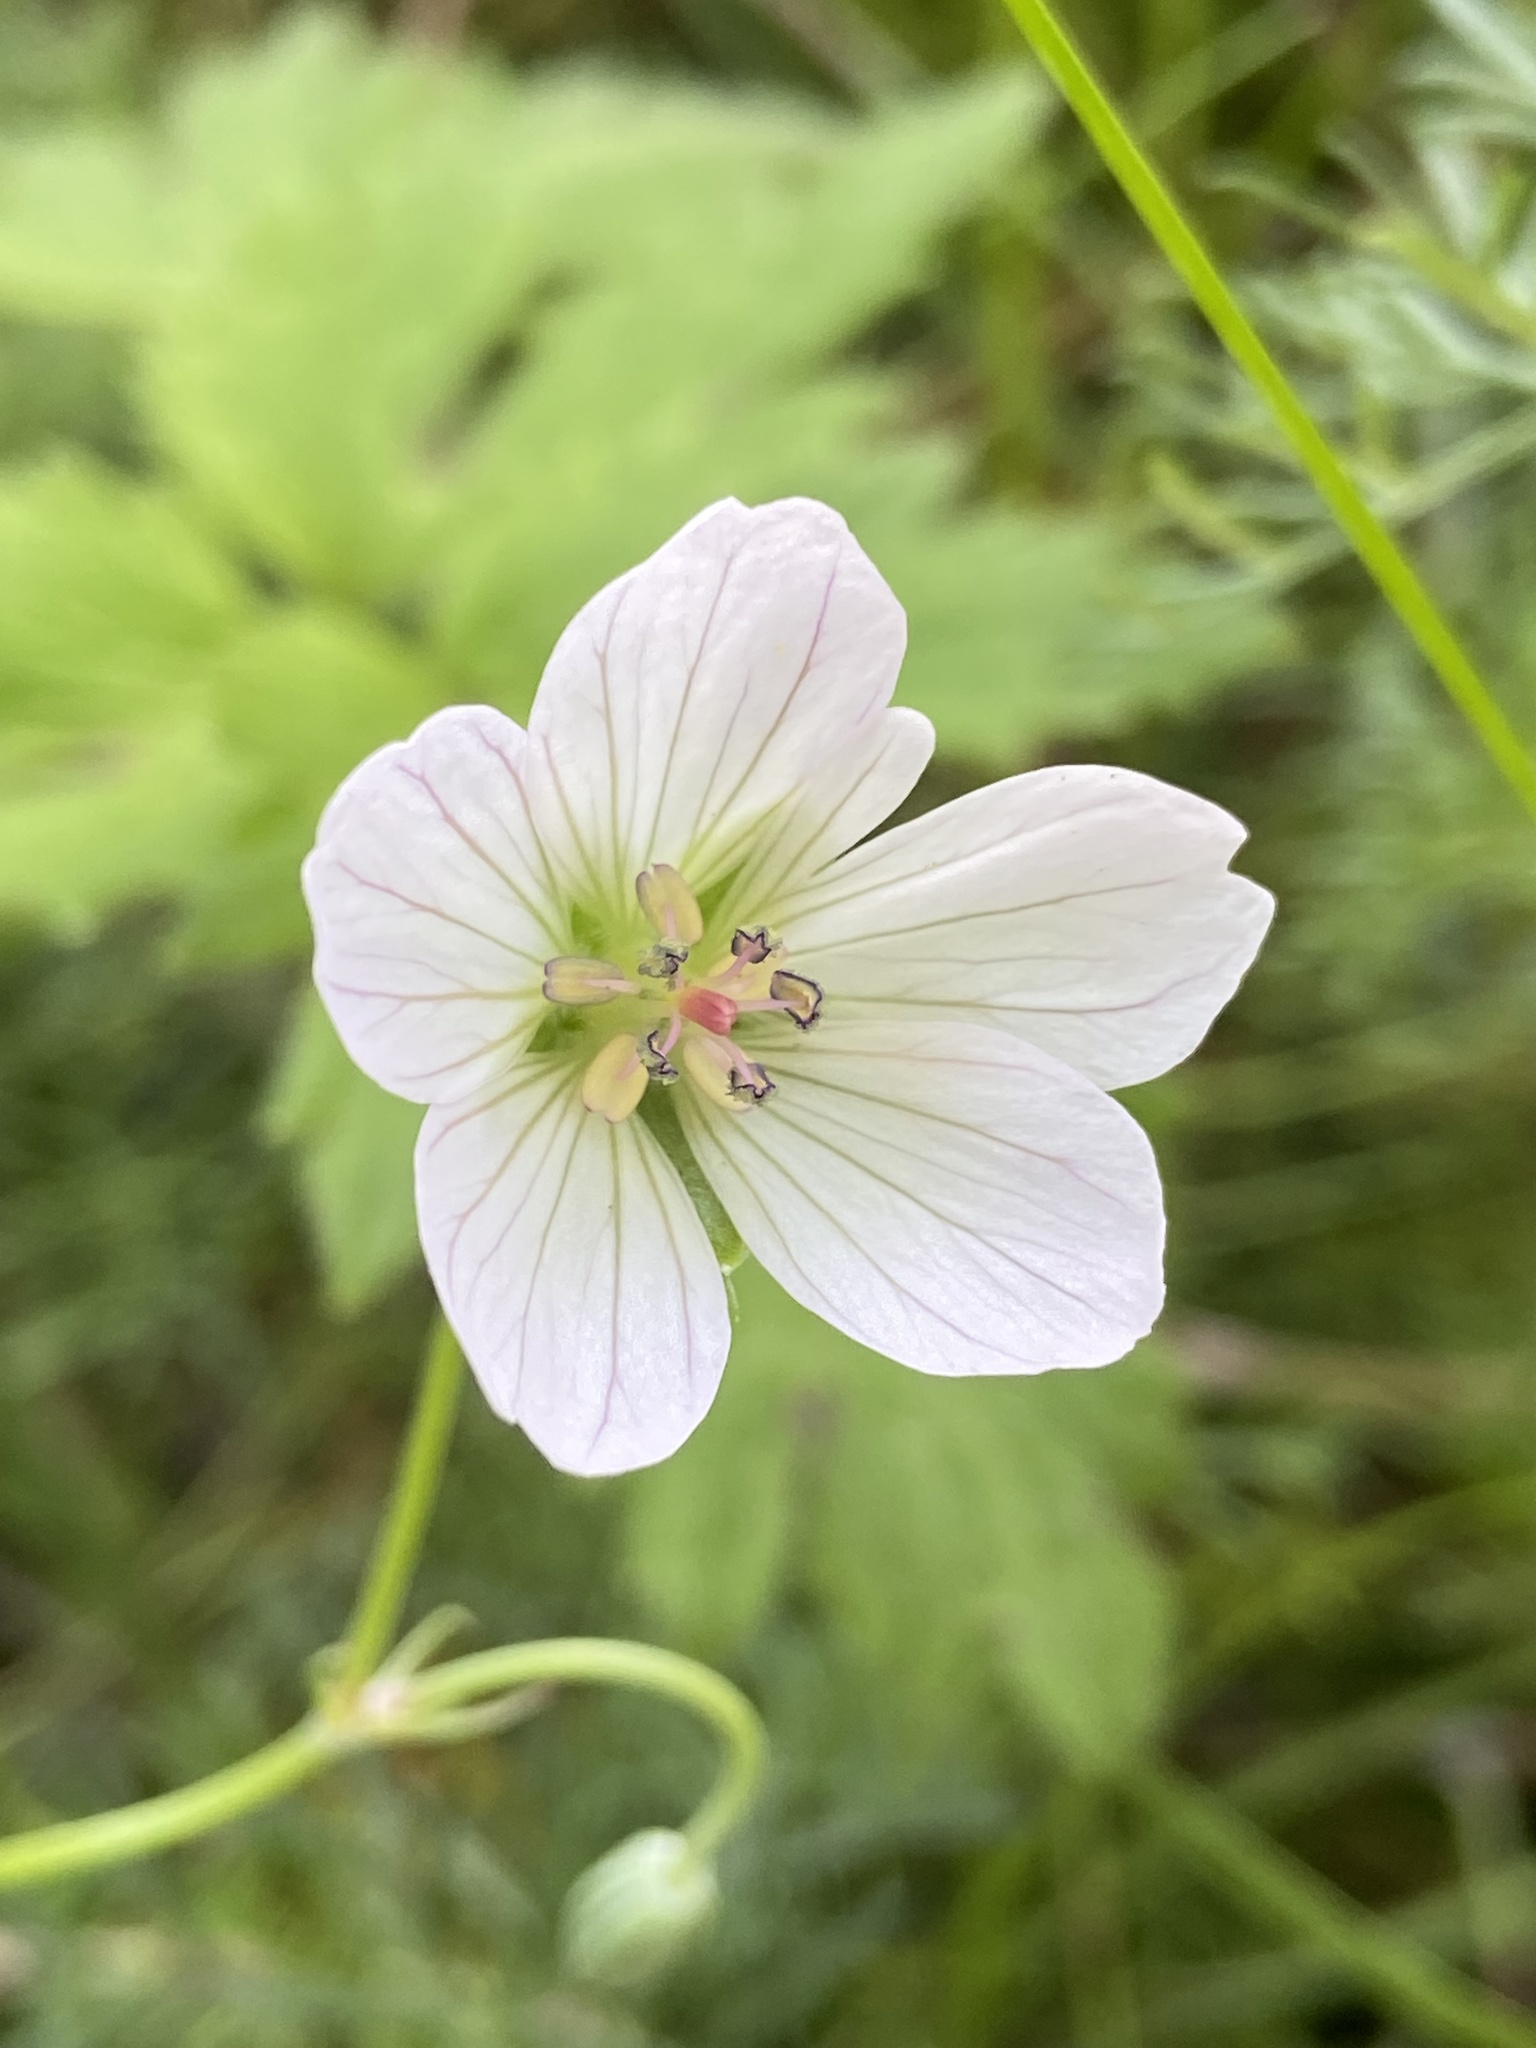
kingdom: Plantae
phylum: Tracheophyta
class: Magnoliopsida
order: Geraniales
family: Geraniaceae
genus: Geranium
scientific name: Geranium incanum
